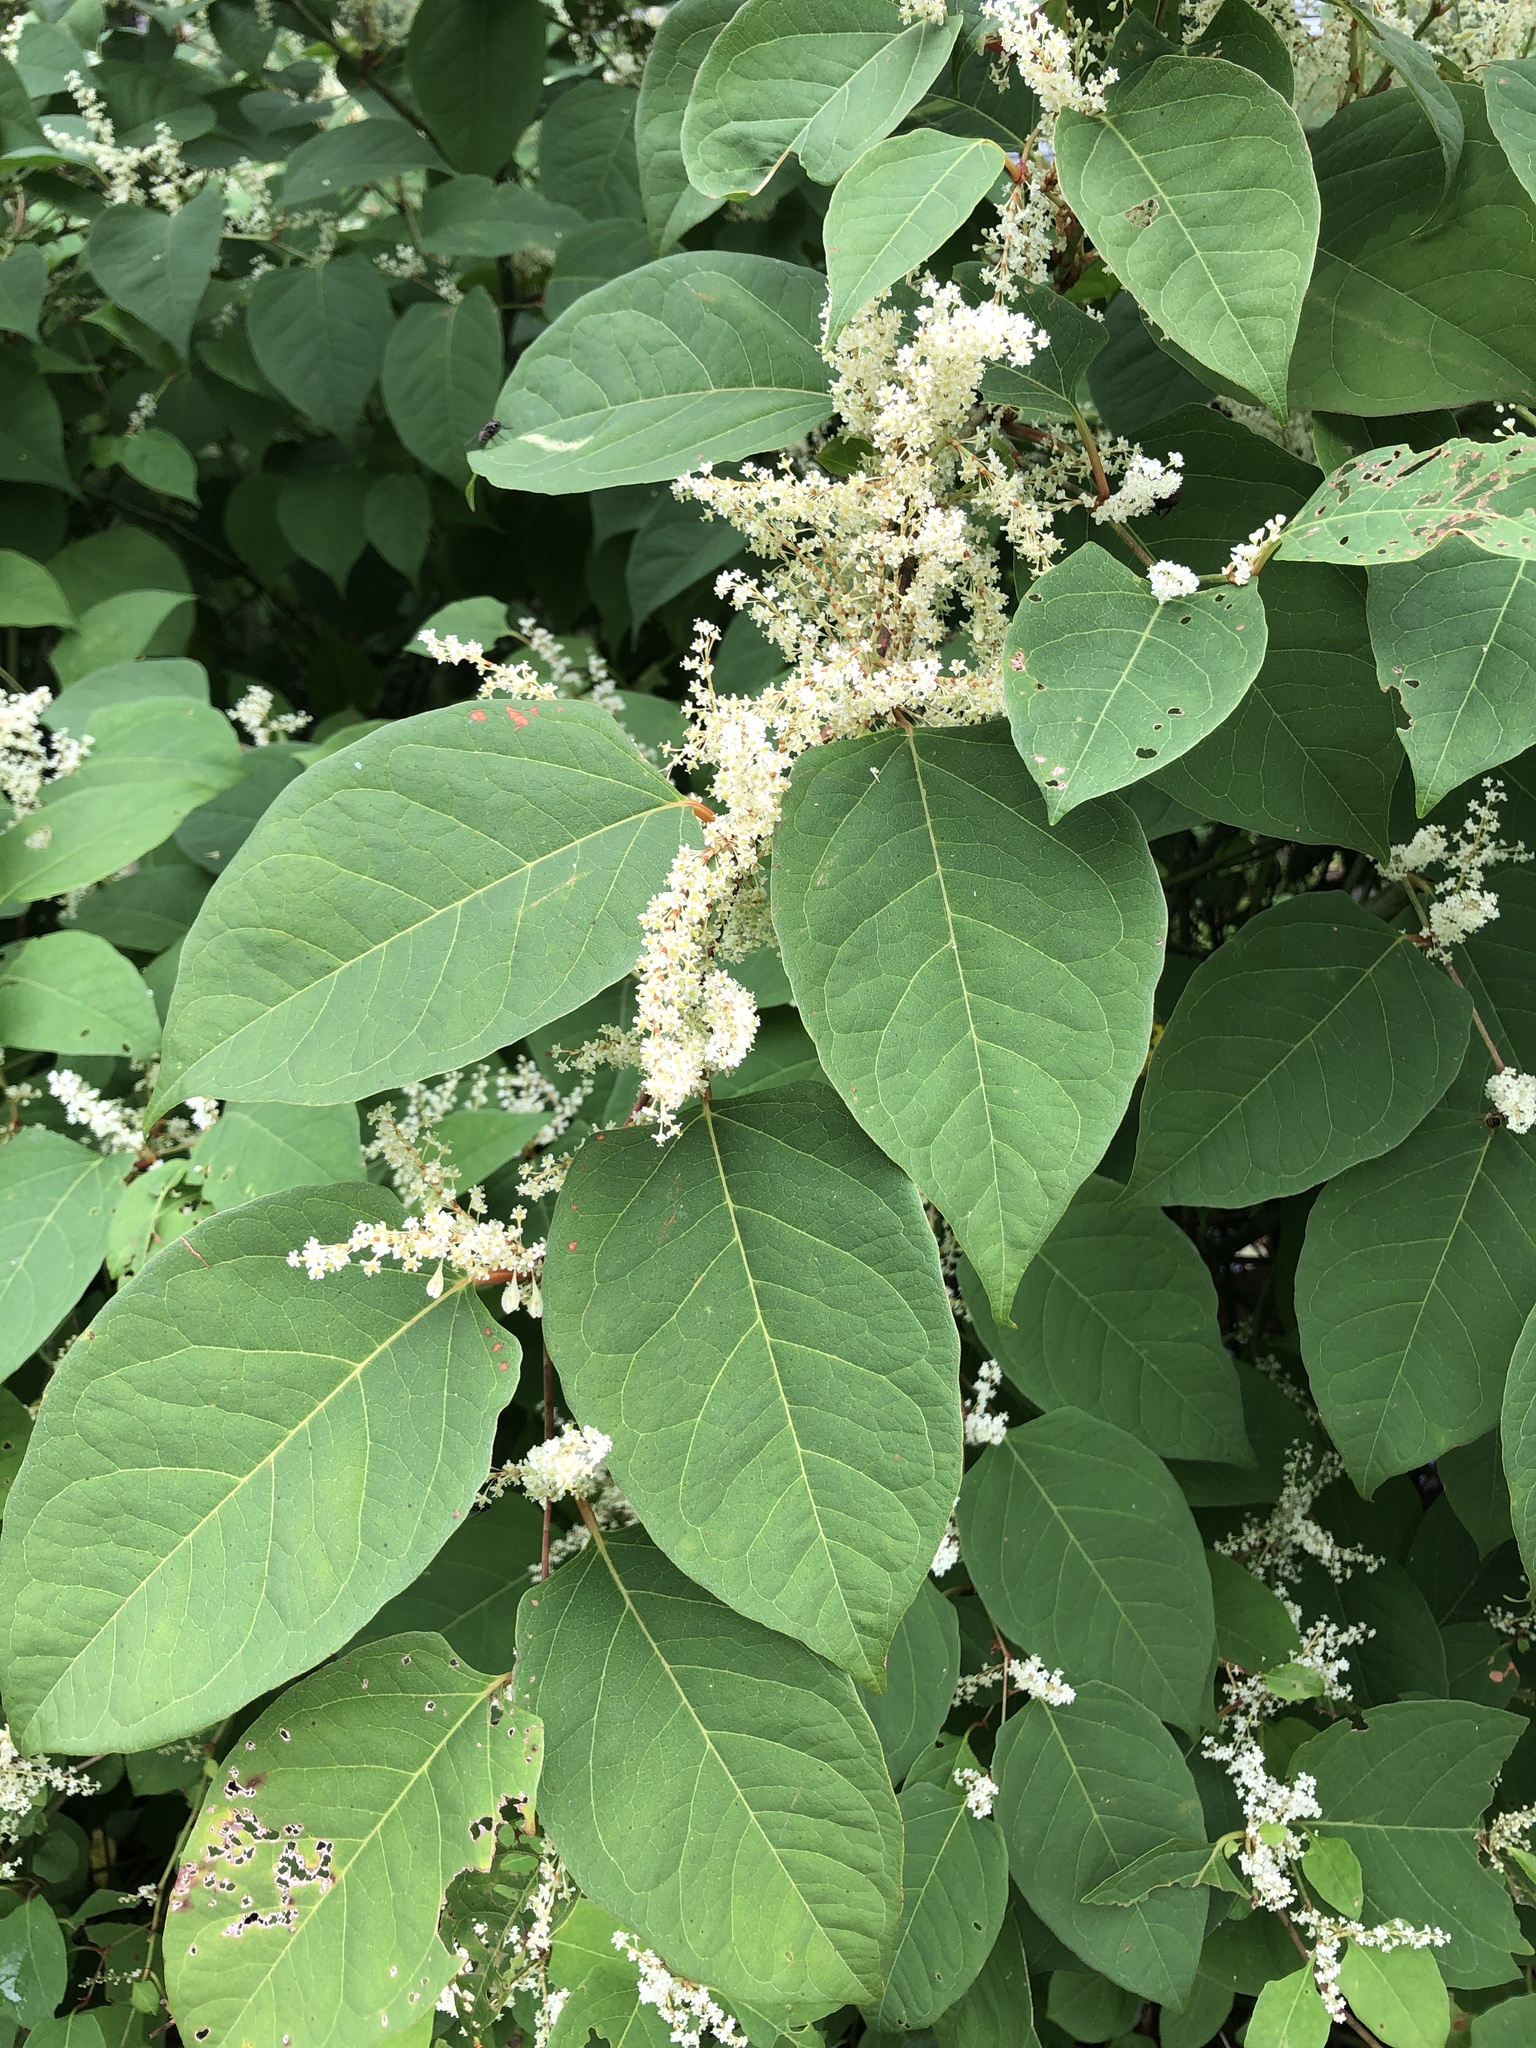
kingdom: Plantae
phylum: Tracheophyta
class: Magnoliopsida
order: Caryophyllales
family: Polygonaceae
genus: Reynoutria
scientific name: Reynoutria japonica
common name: Japanese knotweed
